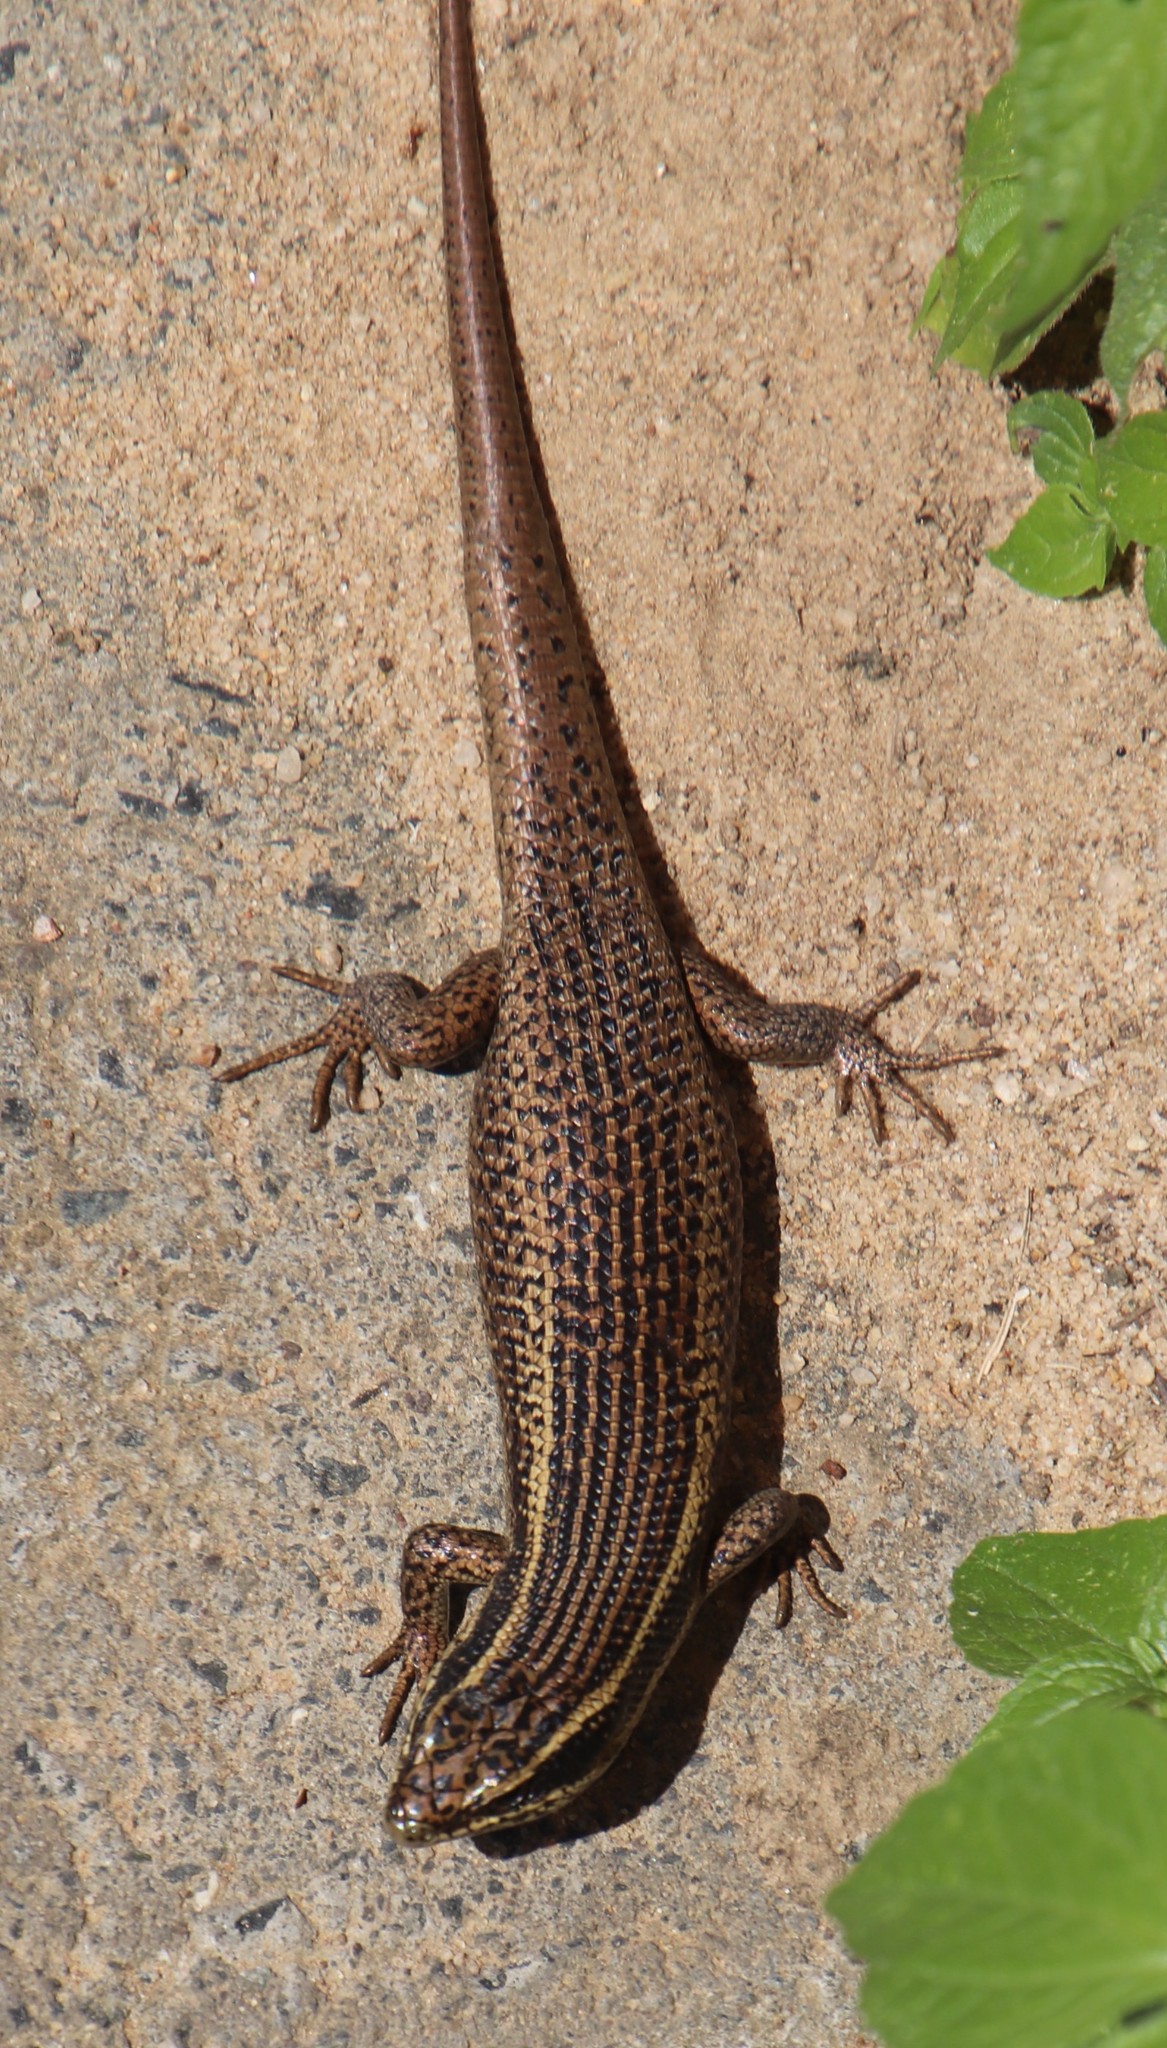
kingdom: Animalia
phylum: Chordata
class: Squamata
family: Scincidae
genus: Trachylepis
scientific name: Trachylepis punctatissima
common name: Montane speckled skink
